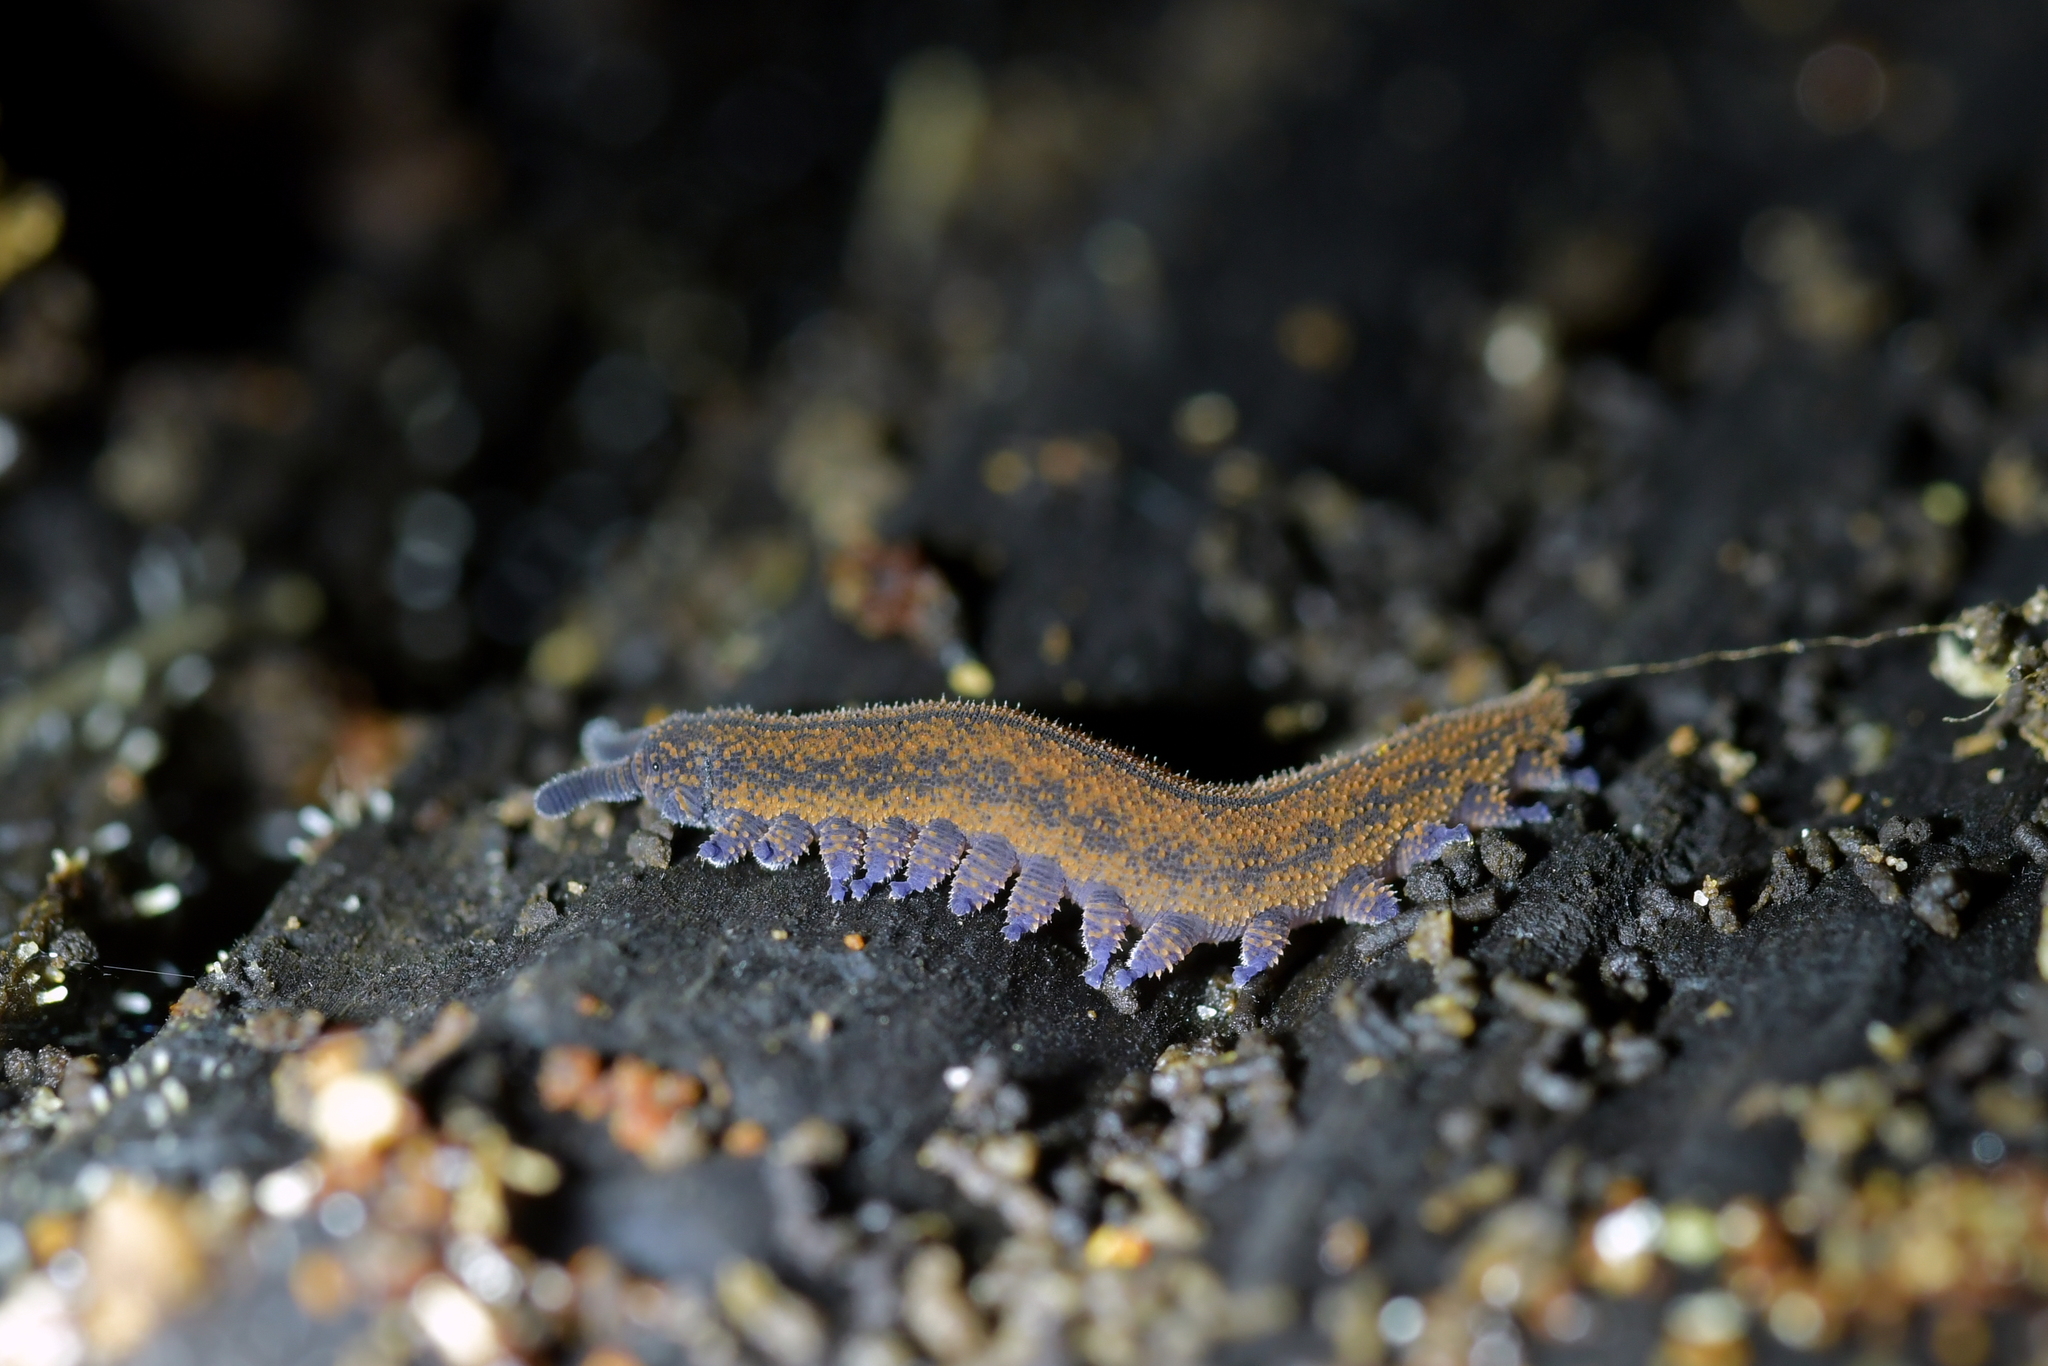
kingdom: Animalia
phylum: Onychophora
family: Peripatopsidae
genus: Peripatoides
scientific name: Peripatoides novaezealandiae
